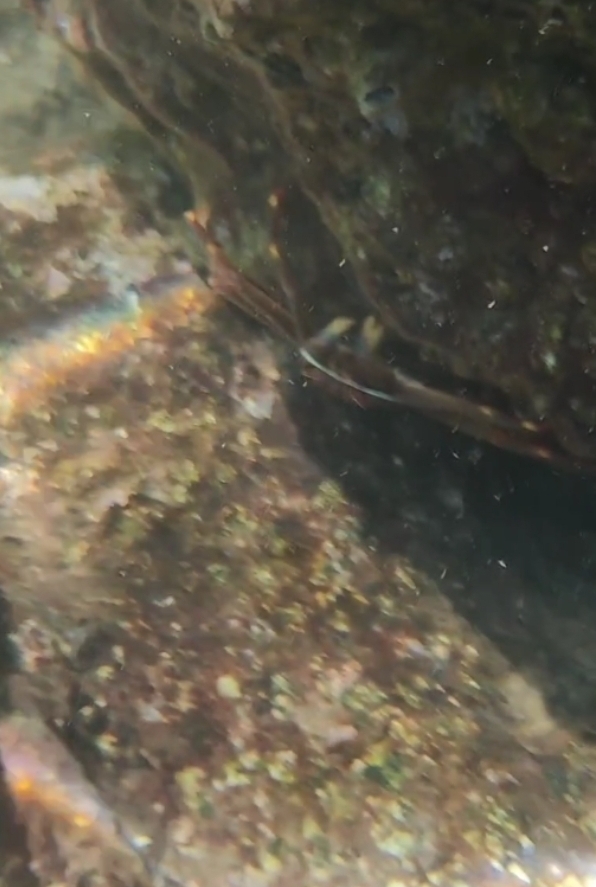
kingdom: Animalia
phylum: Arthropoda
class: Malacostraca
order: Decapoda
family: Percnidae
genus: Percnon
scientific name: Percnon gibbesi
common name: Nimble spray crab
